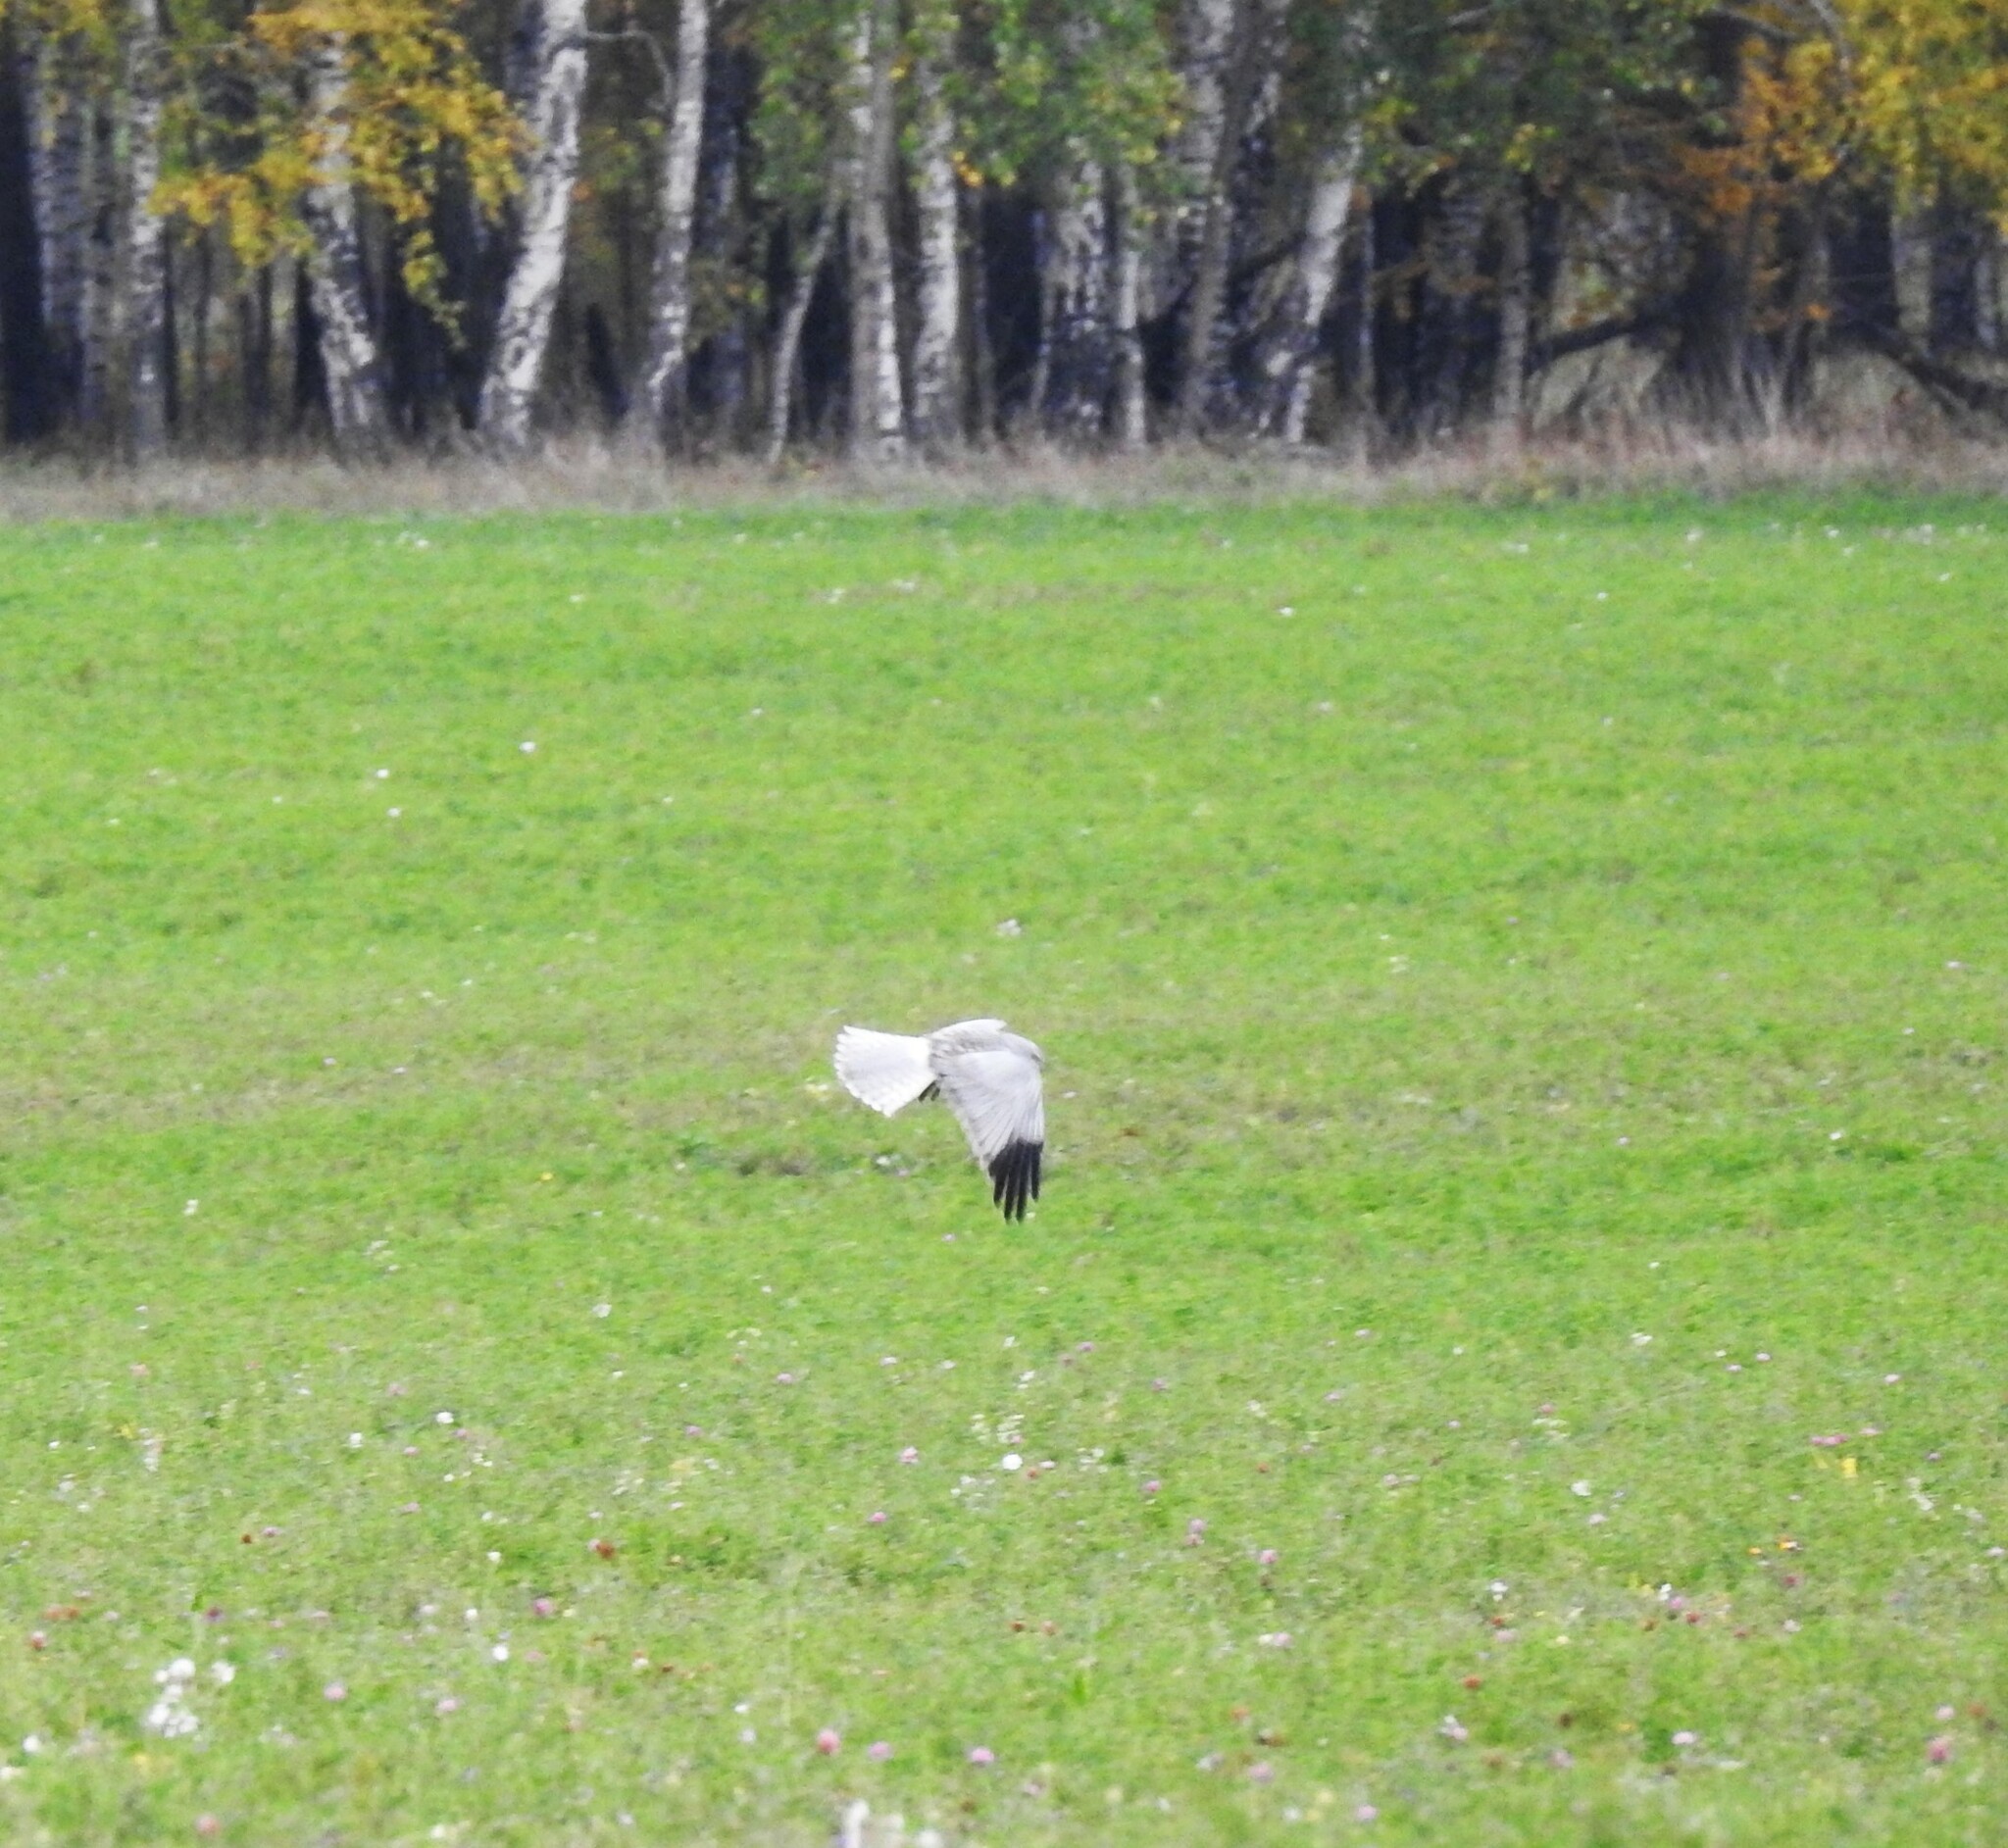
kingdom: Animalia
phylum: Chordata
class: Aves
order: Accipitriformes
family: Accipitridae
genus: Circus
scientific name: Circus cyaneus
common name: Hen harrier
